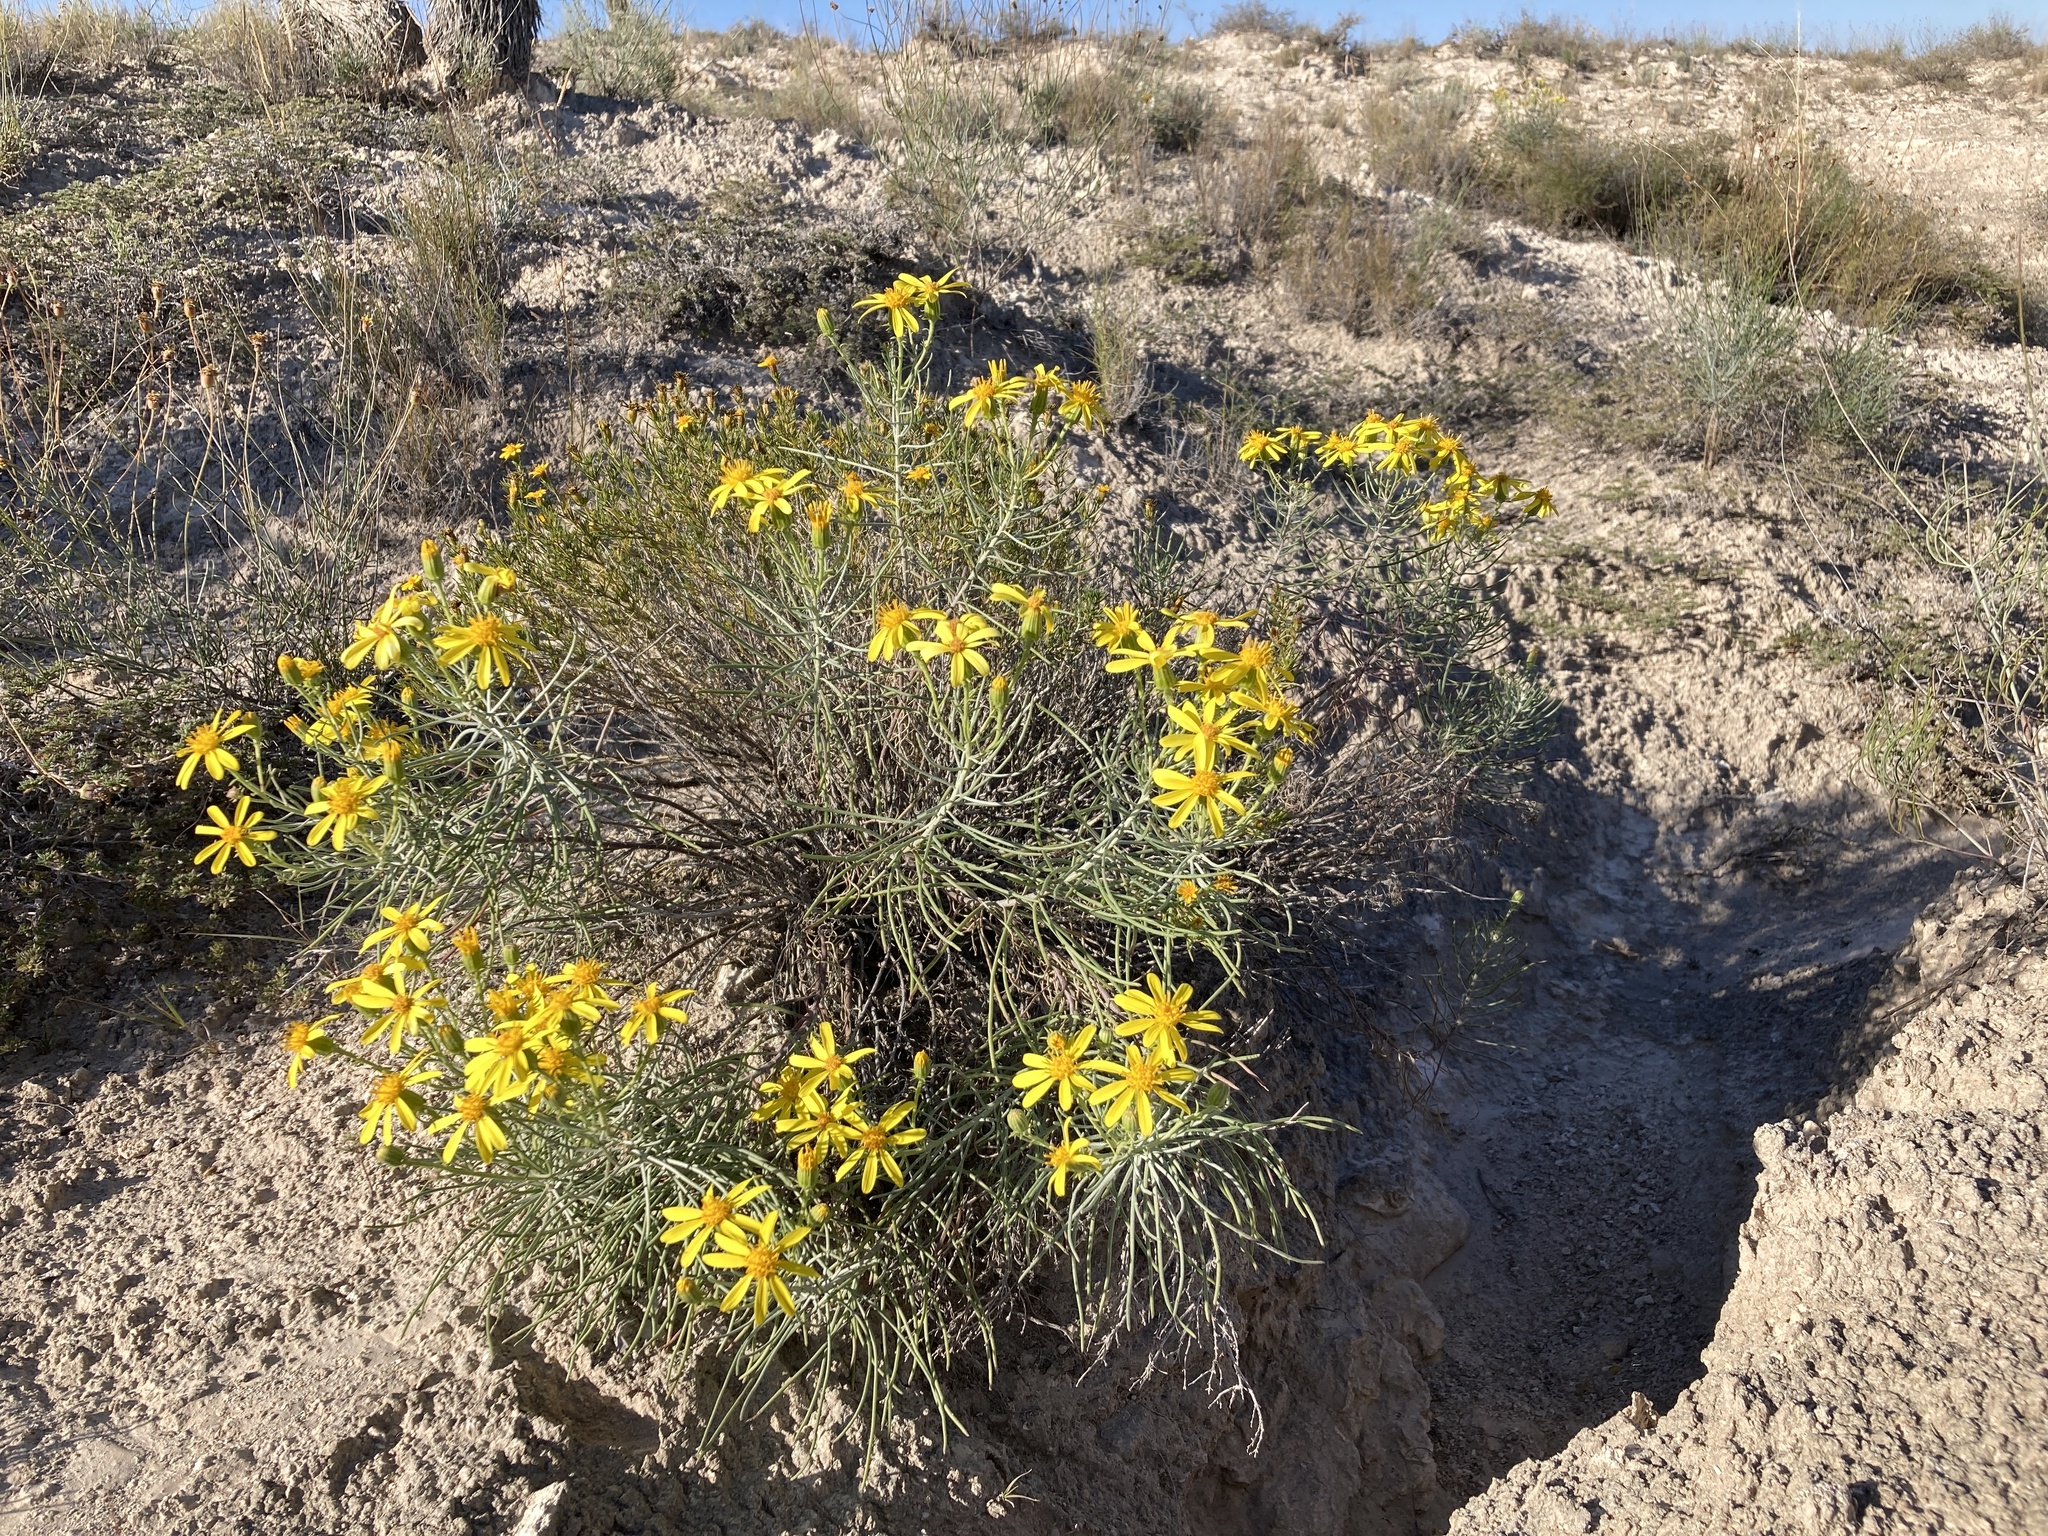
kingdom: Plantae
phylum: Tracheophyta
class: Magnoliopsida
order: Asterales
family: Asteraceae
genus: Senecio
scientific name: Senecio warnockii
